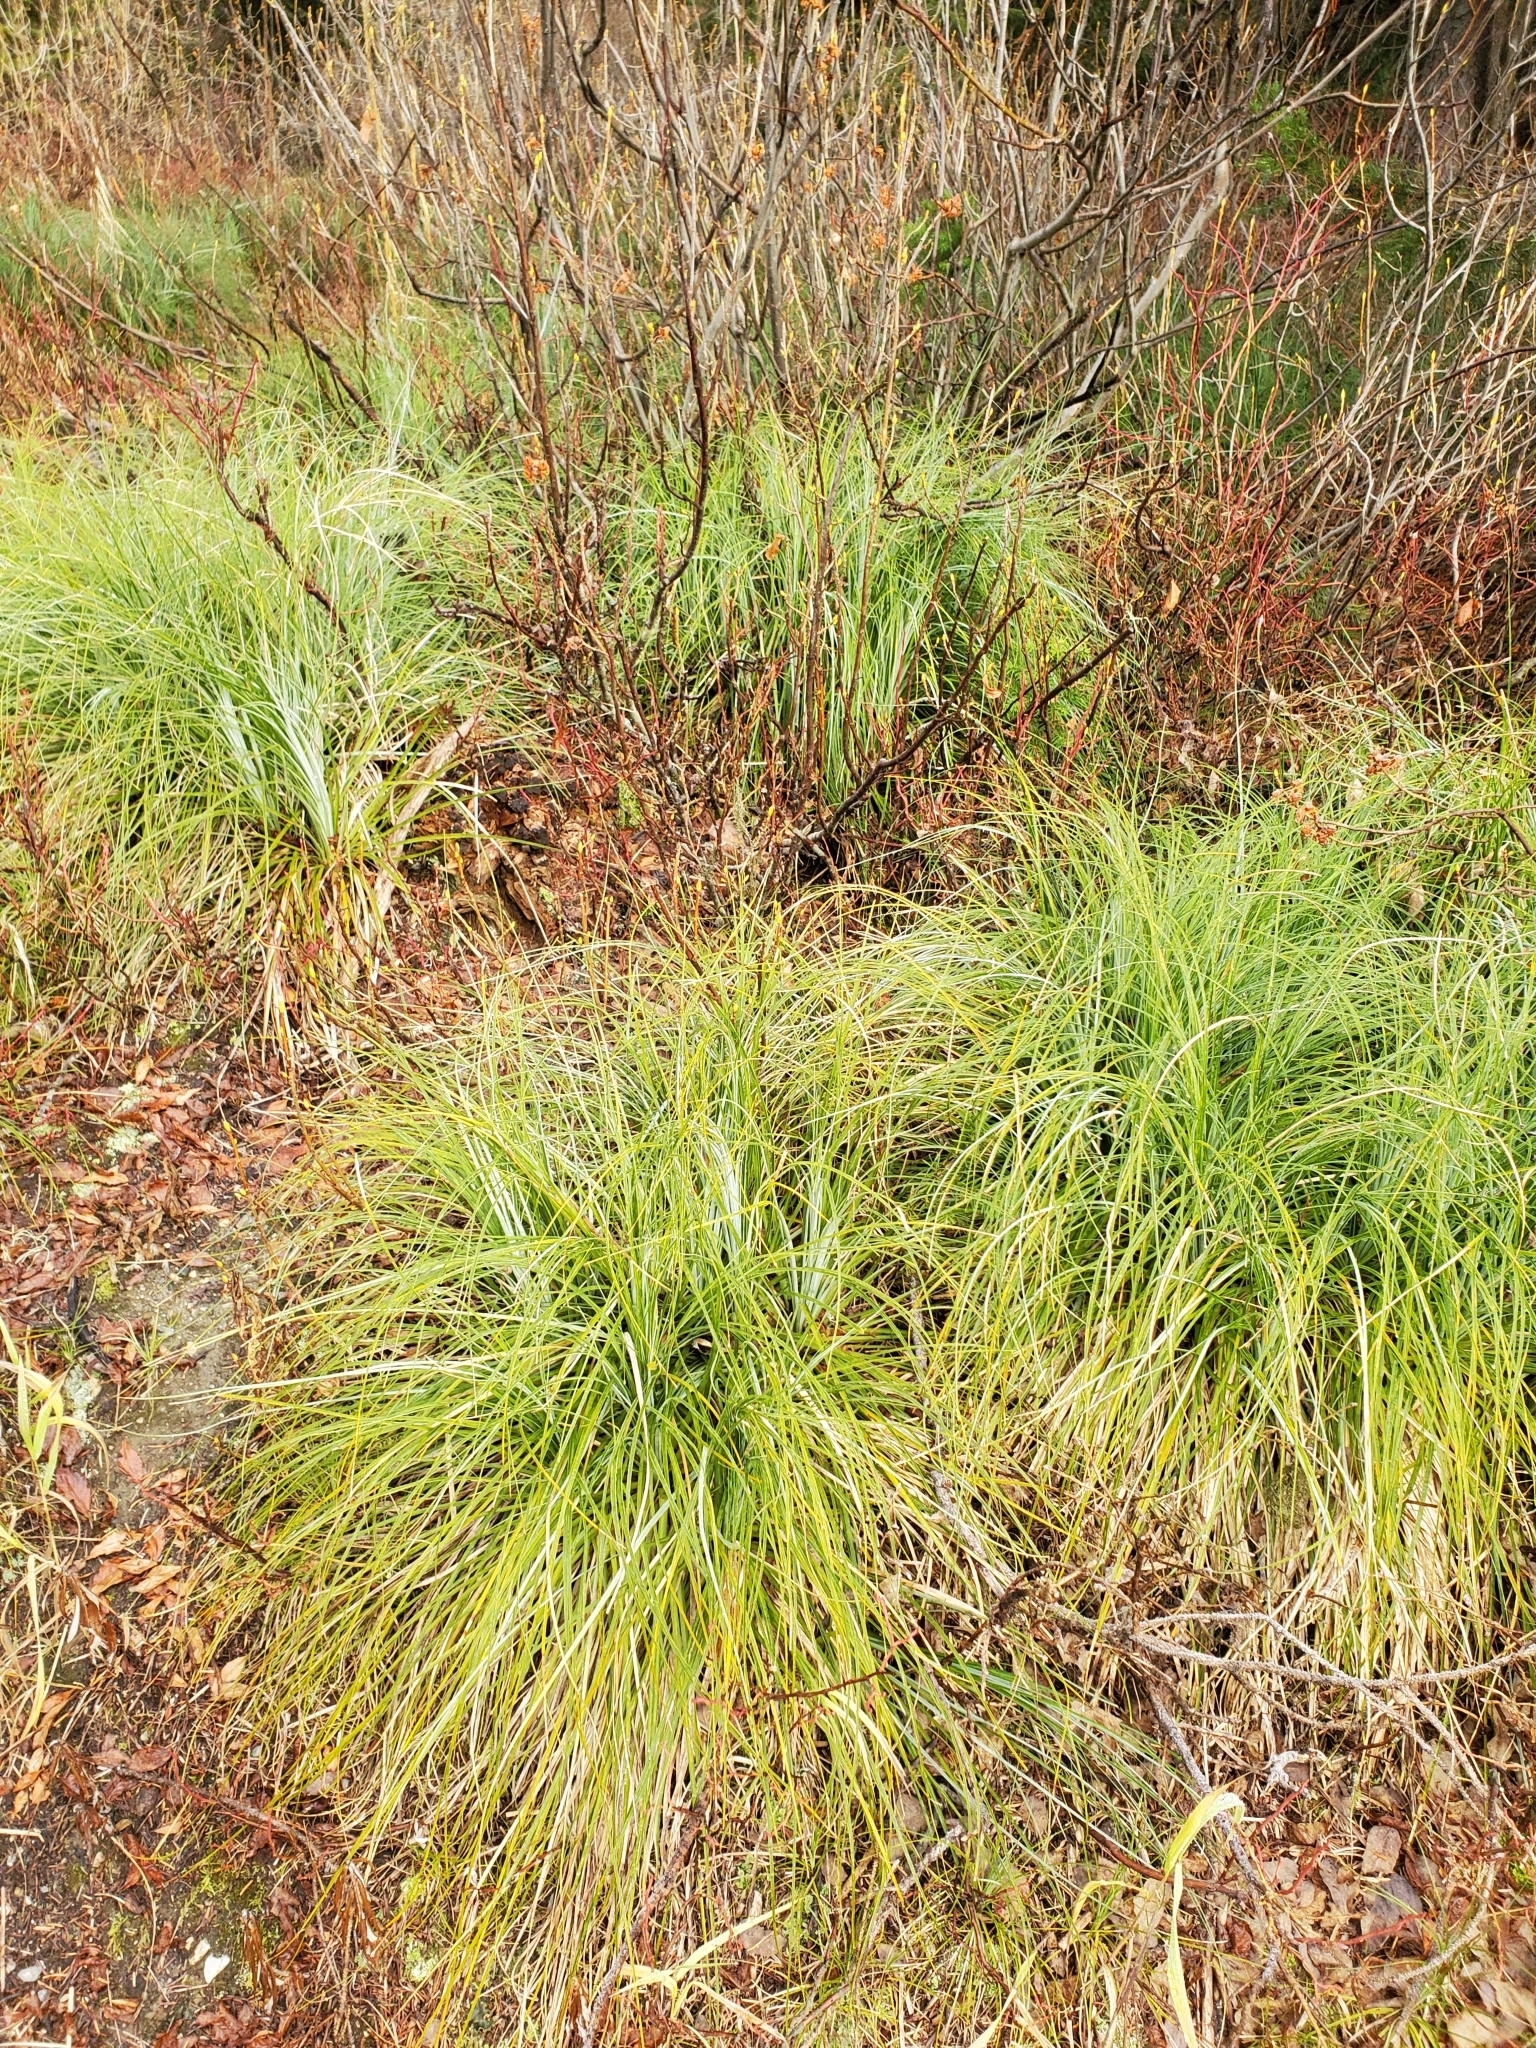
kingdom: Plantae
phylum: Tracheophyta
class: Liliopsida
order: Liliales
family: Melanthiaceae
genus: Xerophyllum
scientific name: Xerophyllum tenax
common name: Bear-grass
